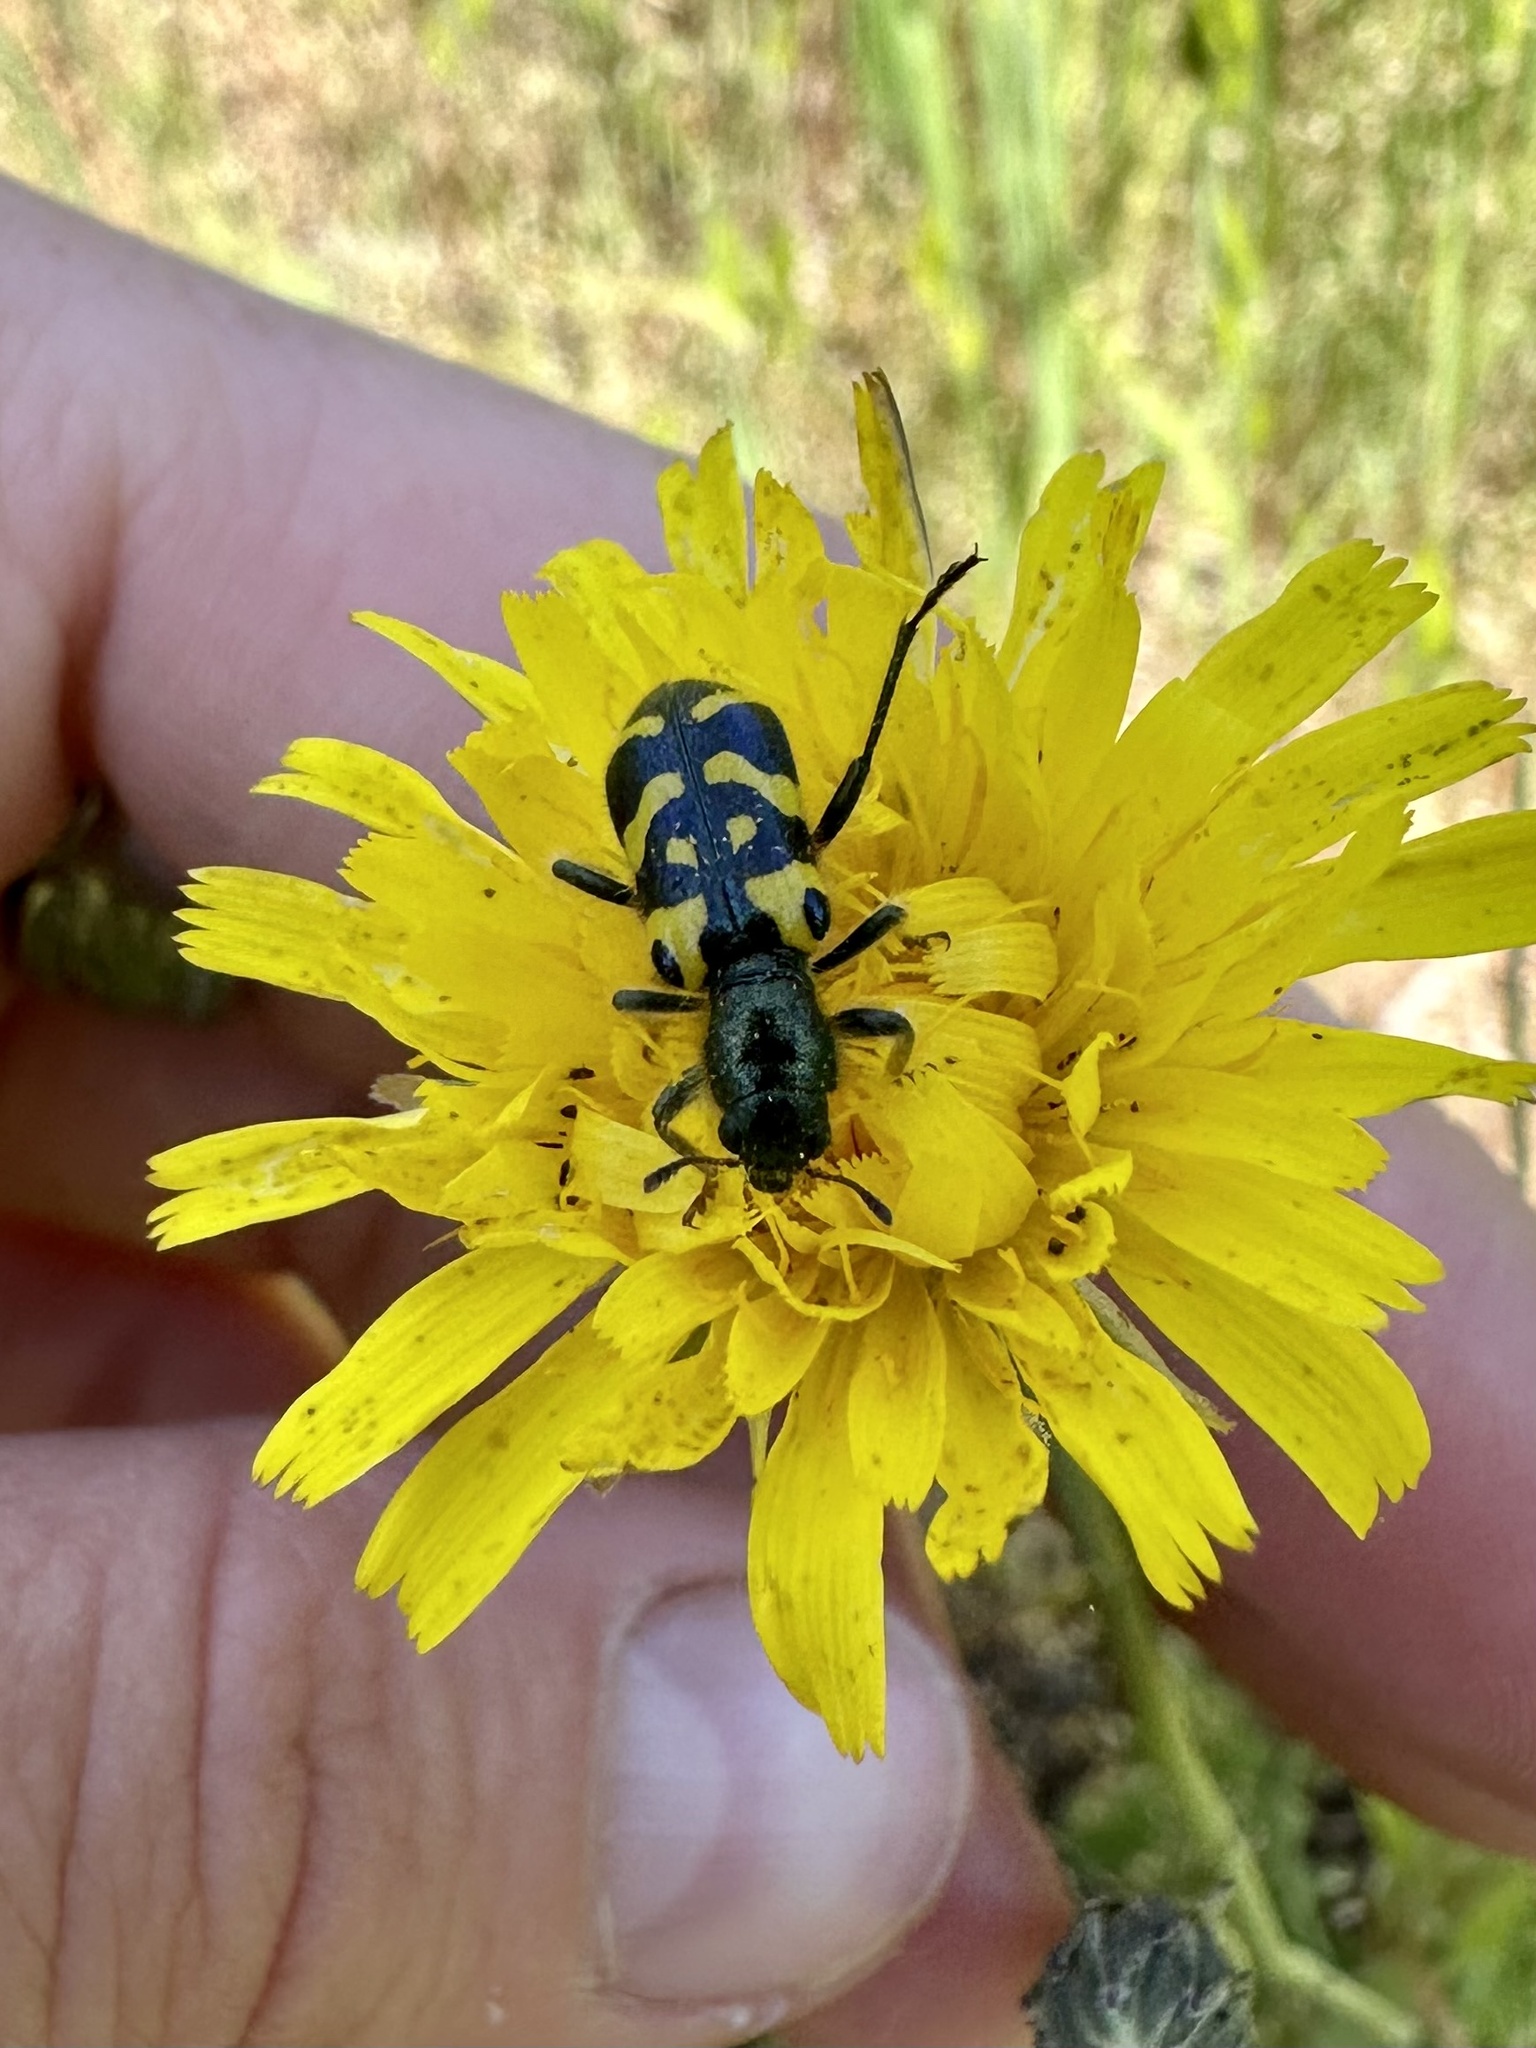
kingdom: Animalia
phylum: Arthropoda
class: Insecta
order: Coleoptera
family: Cleridae
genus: Trichodes
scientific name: Trichodes ornatus
